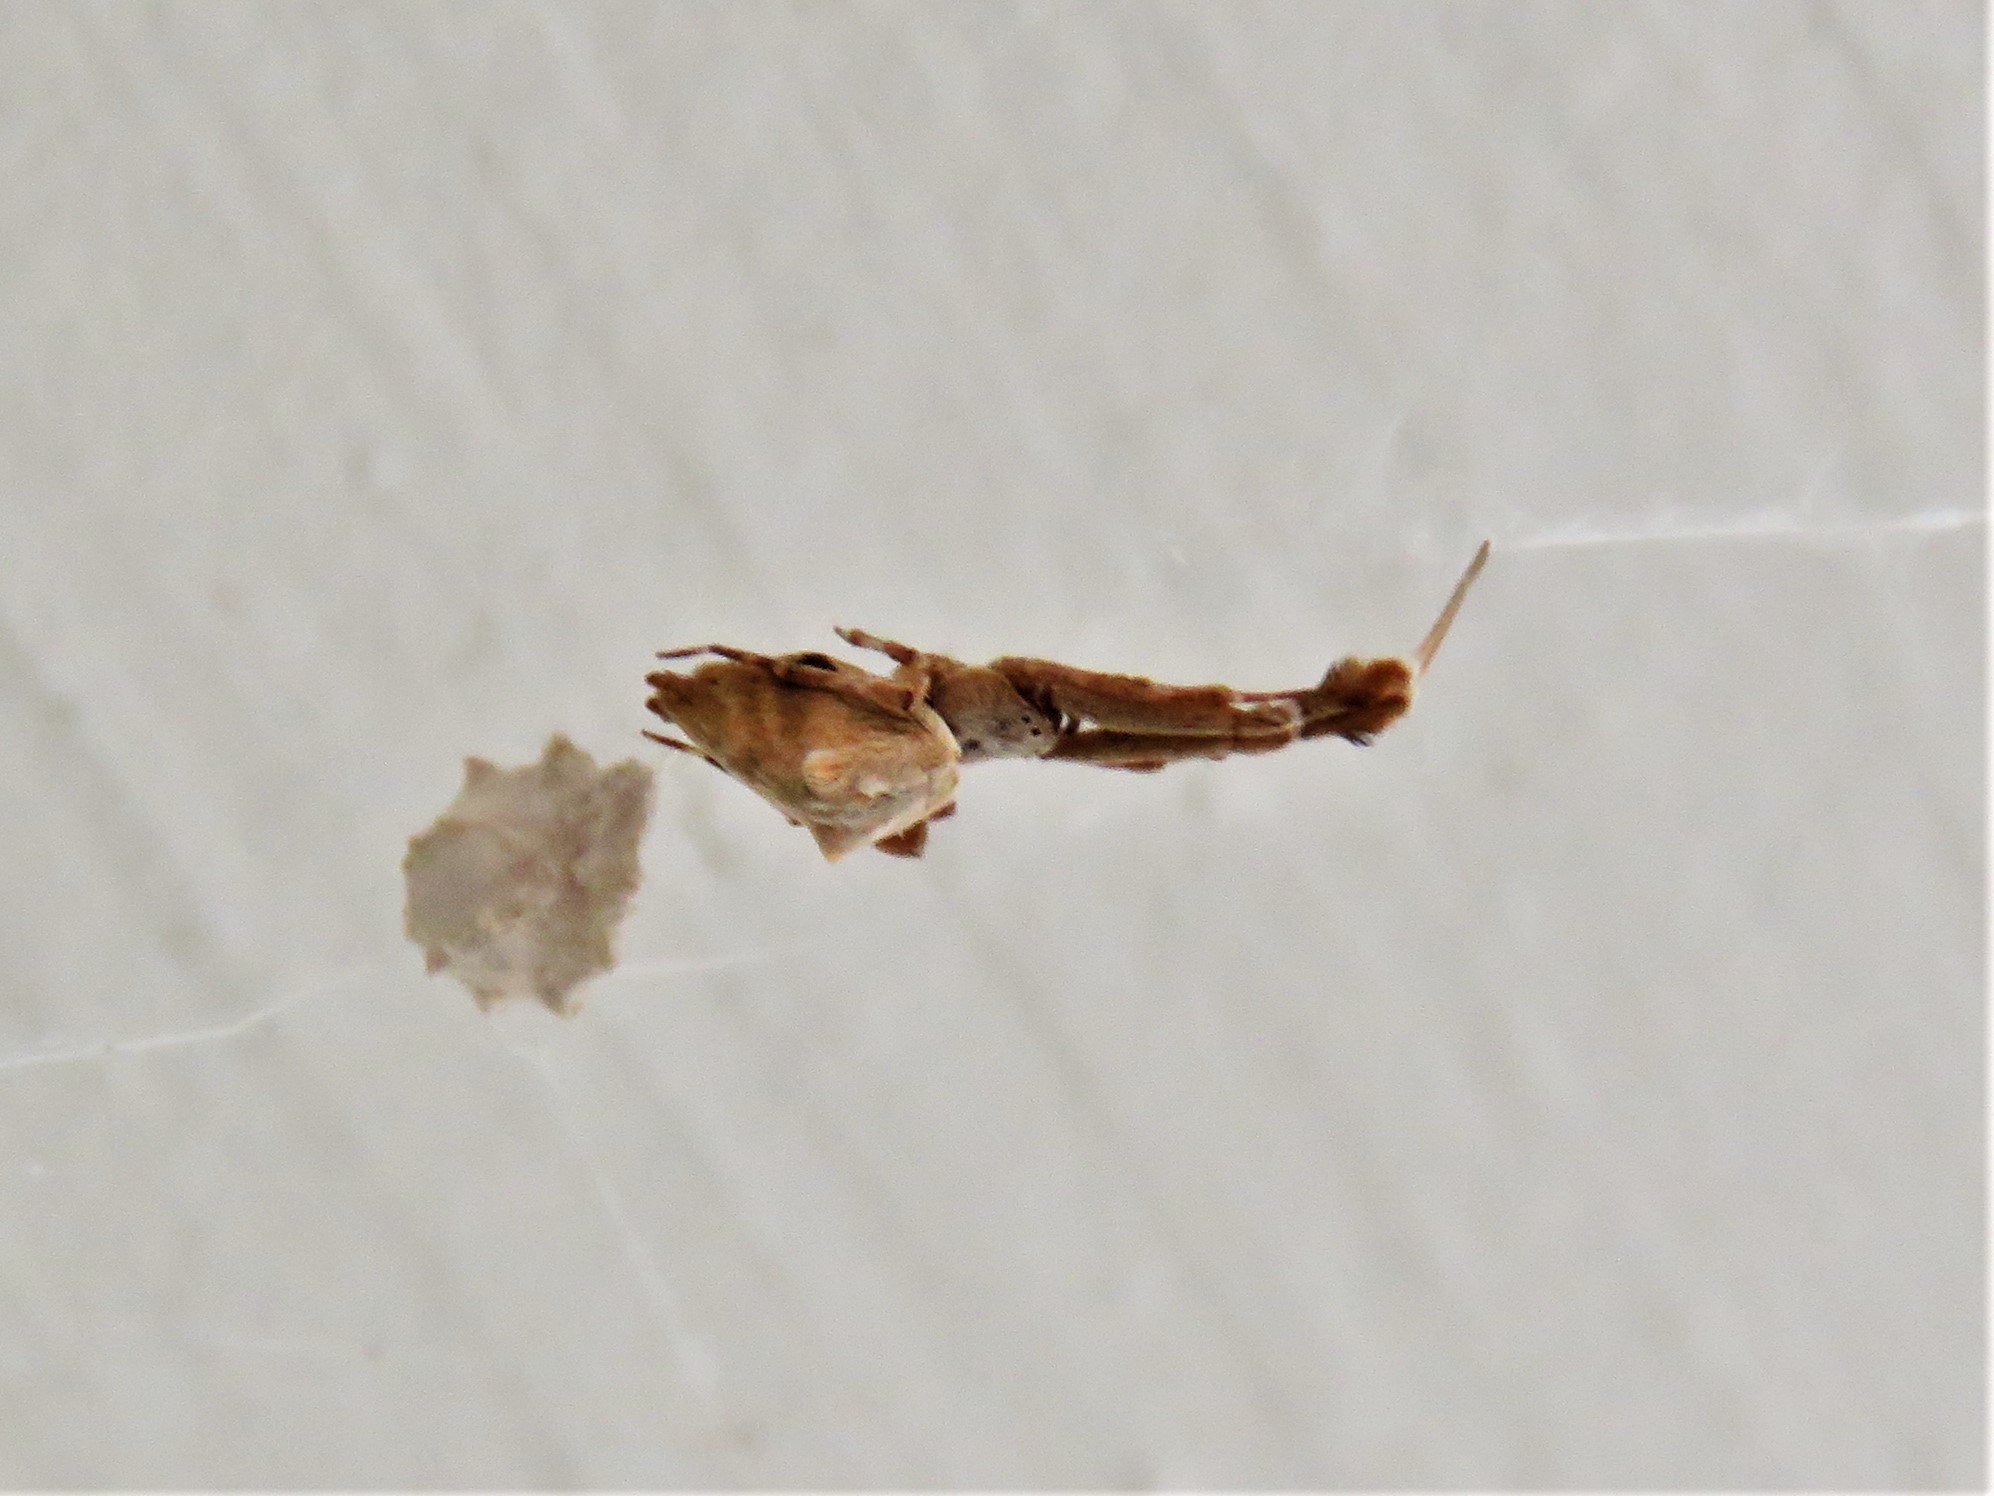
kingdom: Animalia
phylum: Arthropoda
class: Arachnida
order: Araneae
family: Uloboridae
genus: Uloborus
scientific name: Uloborus glomosus
